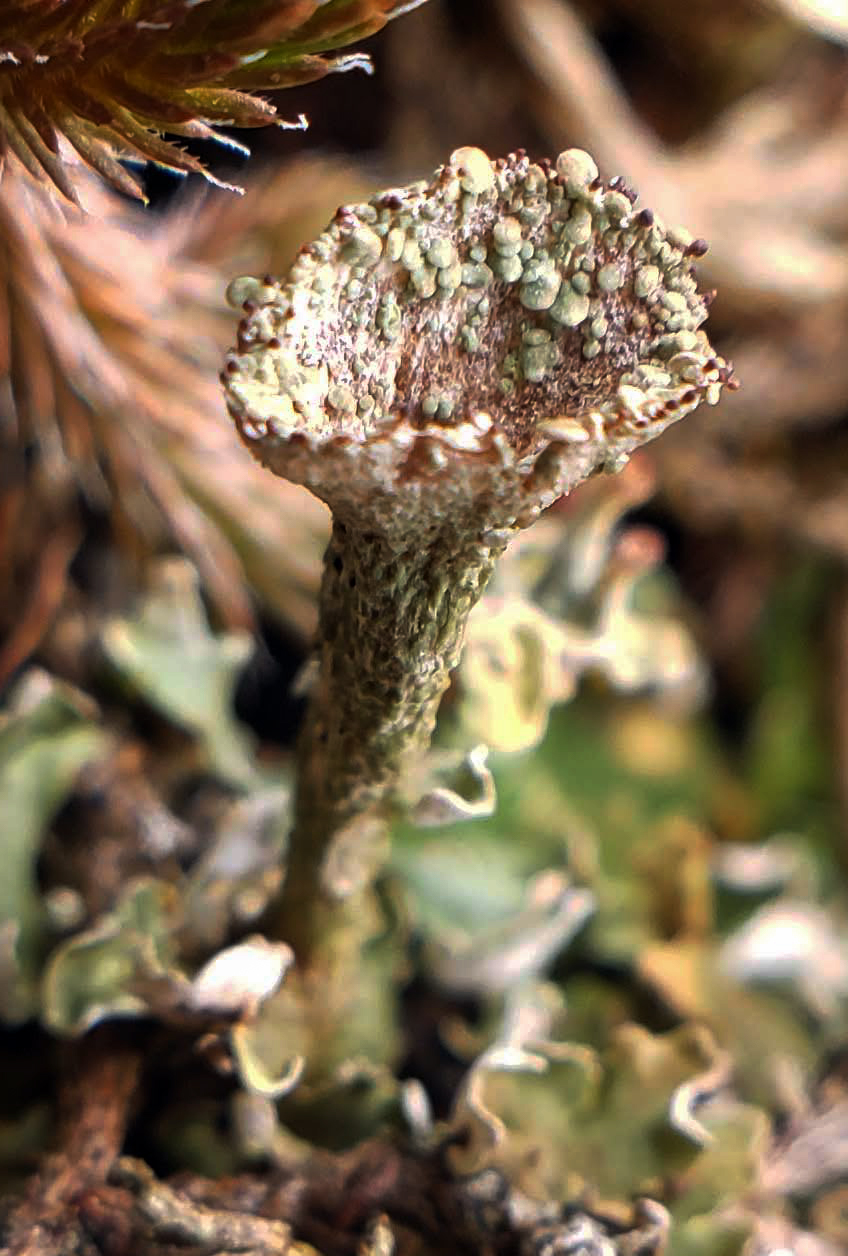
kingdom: Fungi
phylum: Ascomycota
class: Lecanoromycetes
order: Lecanorales
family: Cladoniaceae
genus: Cladonia
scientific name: Cladonia pyxidata
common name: Pebbled pixie cup
